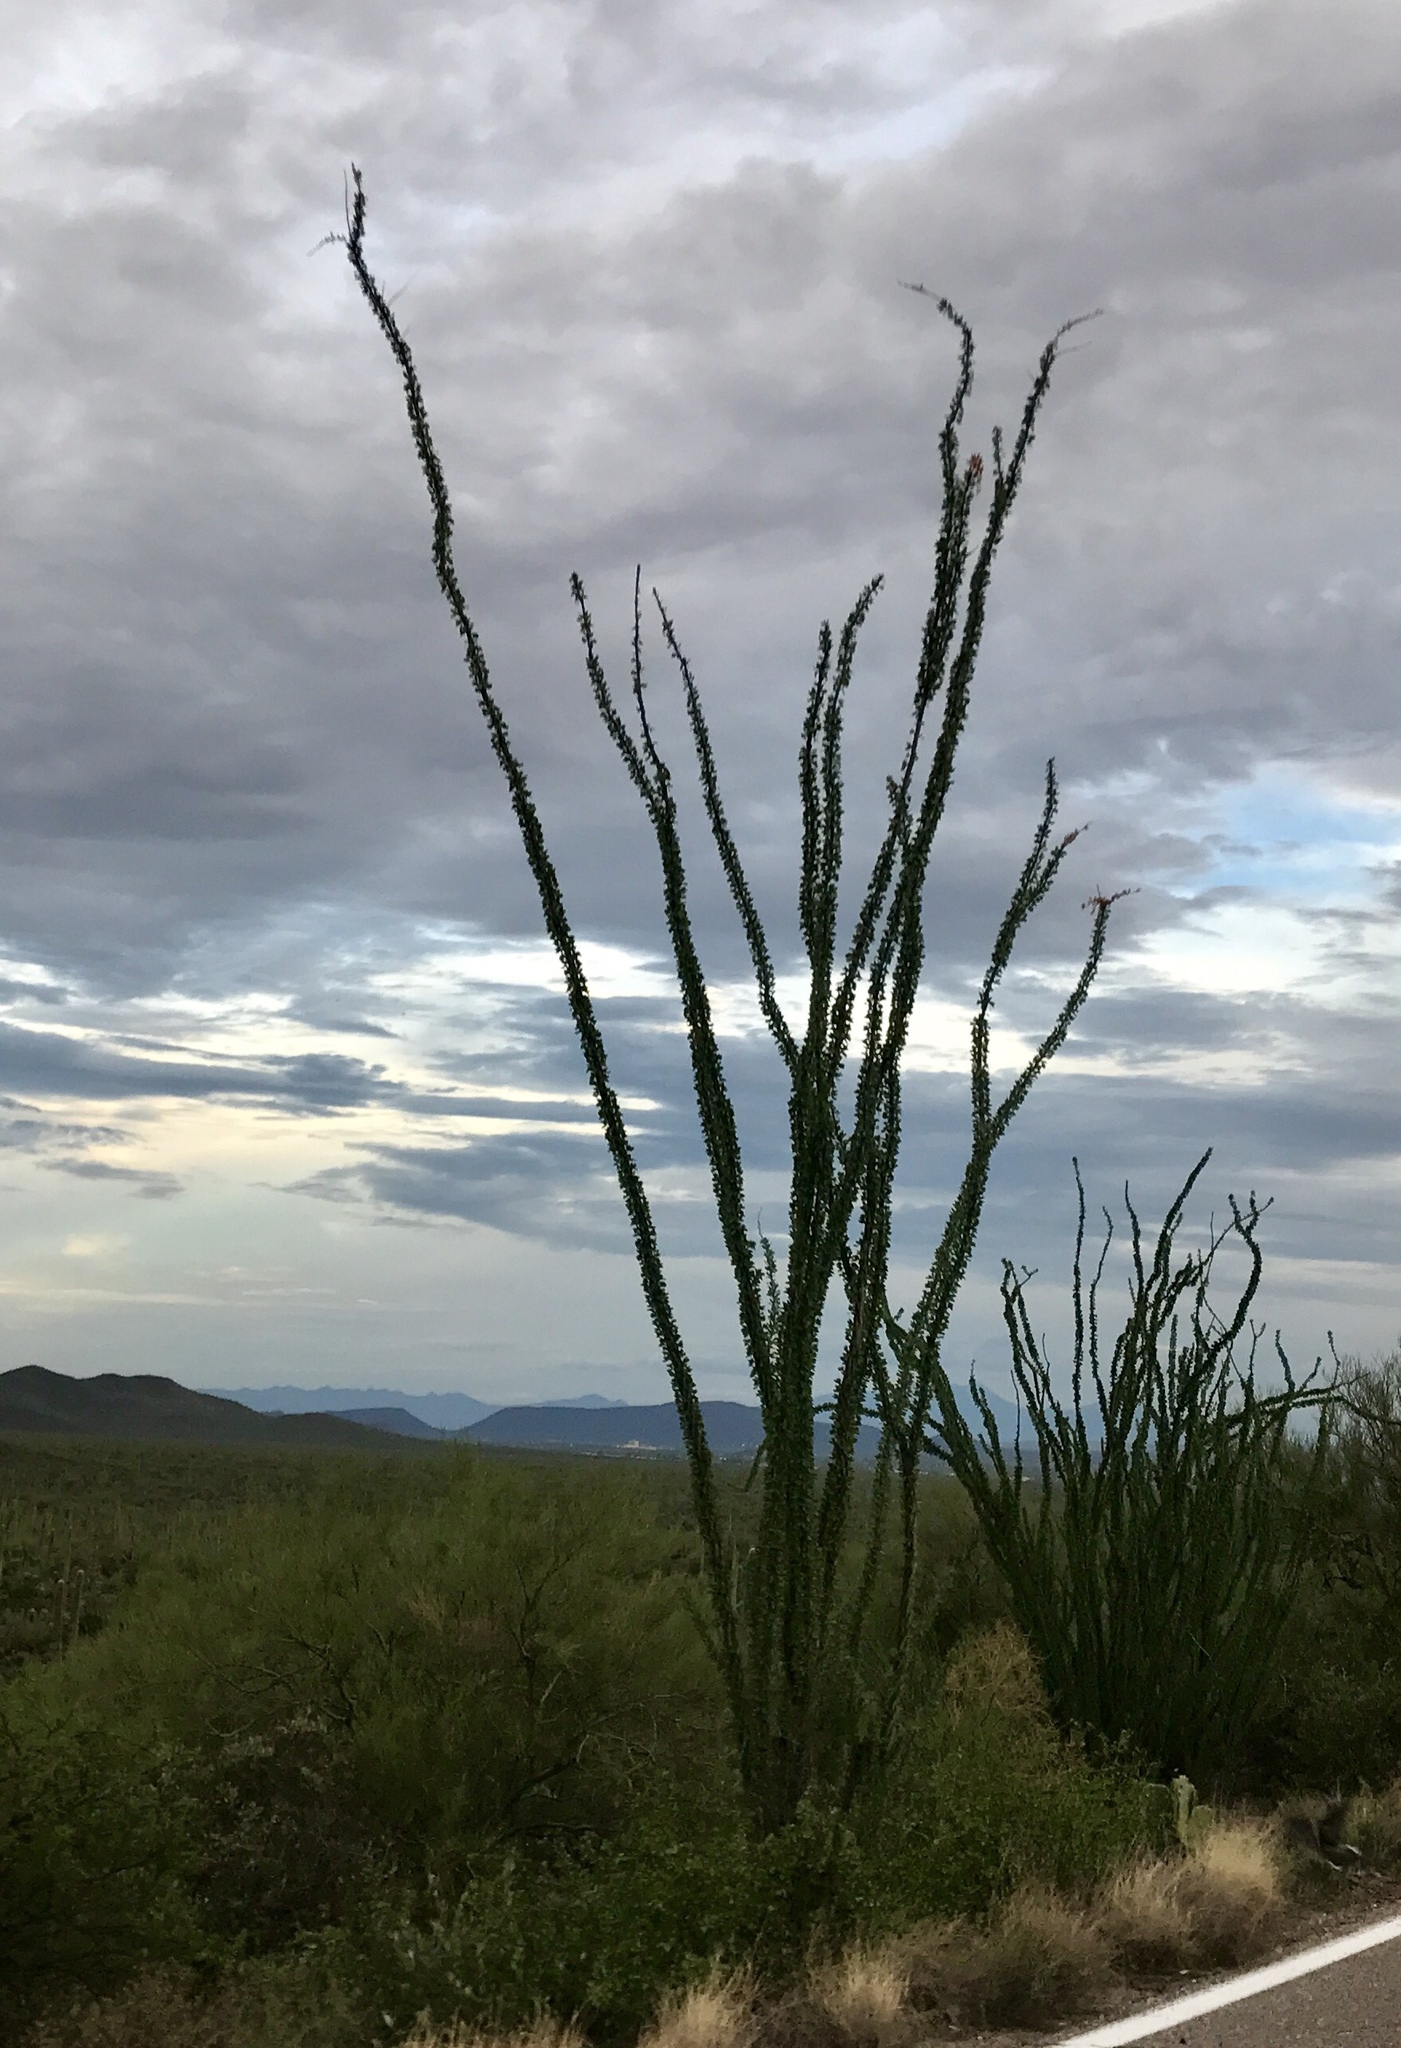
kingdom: Plantae
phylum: Tracheophyta
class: Magnoliopsida
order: Ericales
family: Fouquieriaceae
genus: Fouquieria
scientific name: Fouquieria splendens
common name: Vine-cactus
